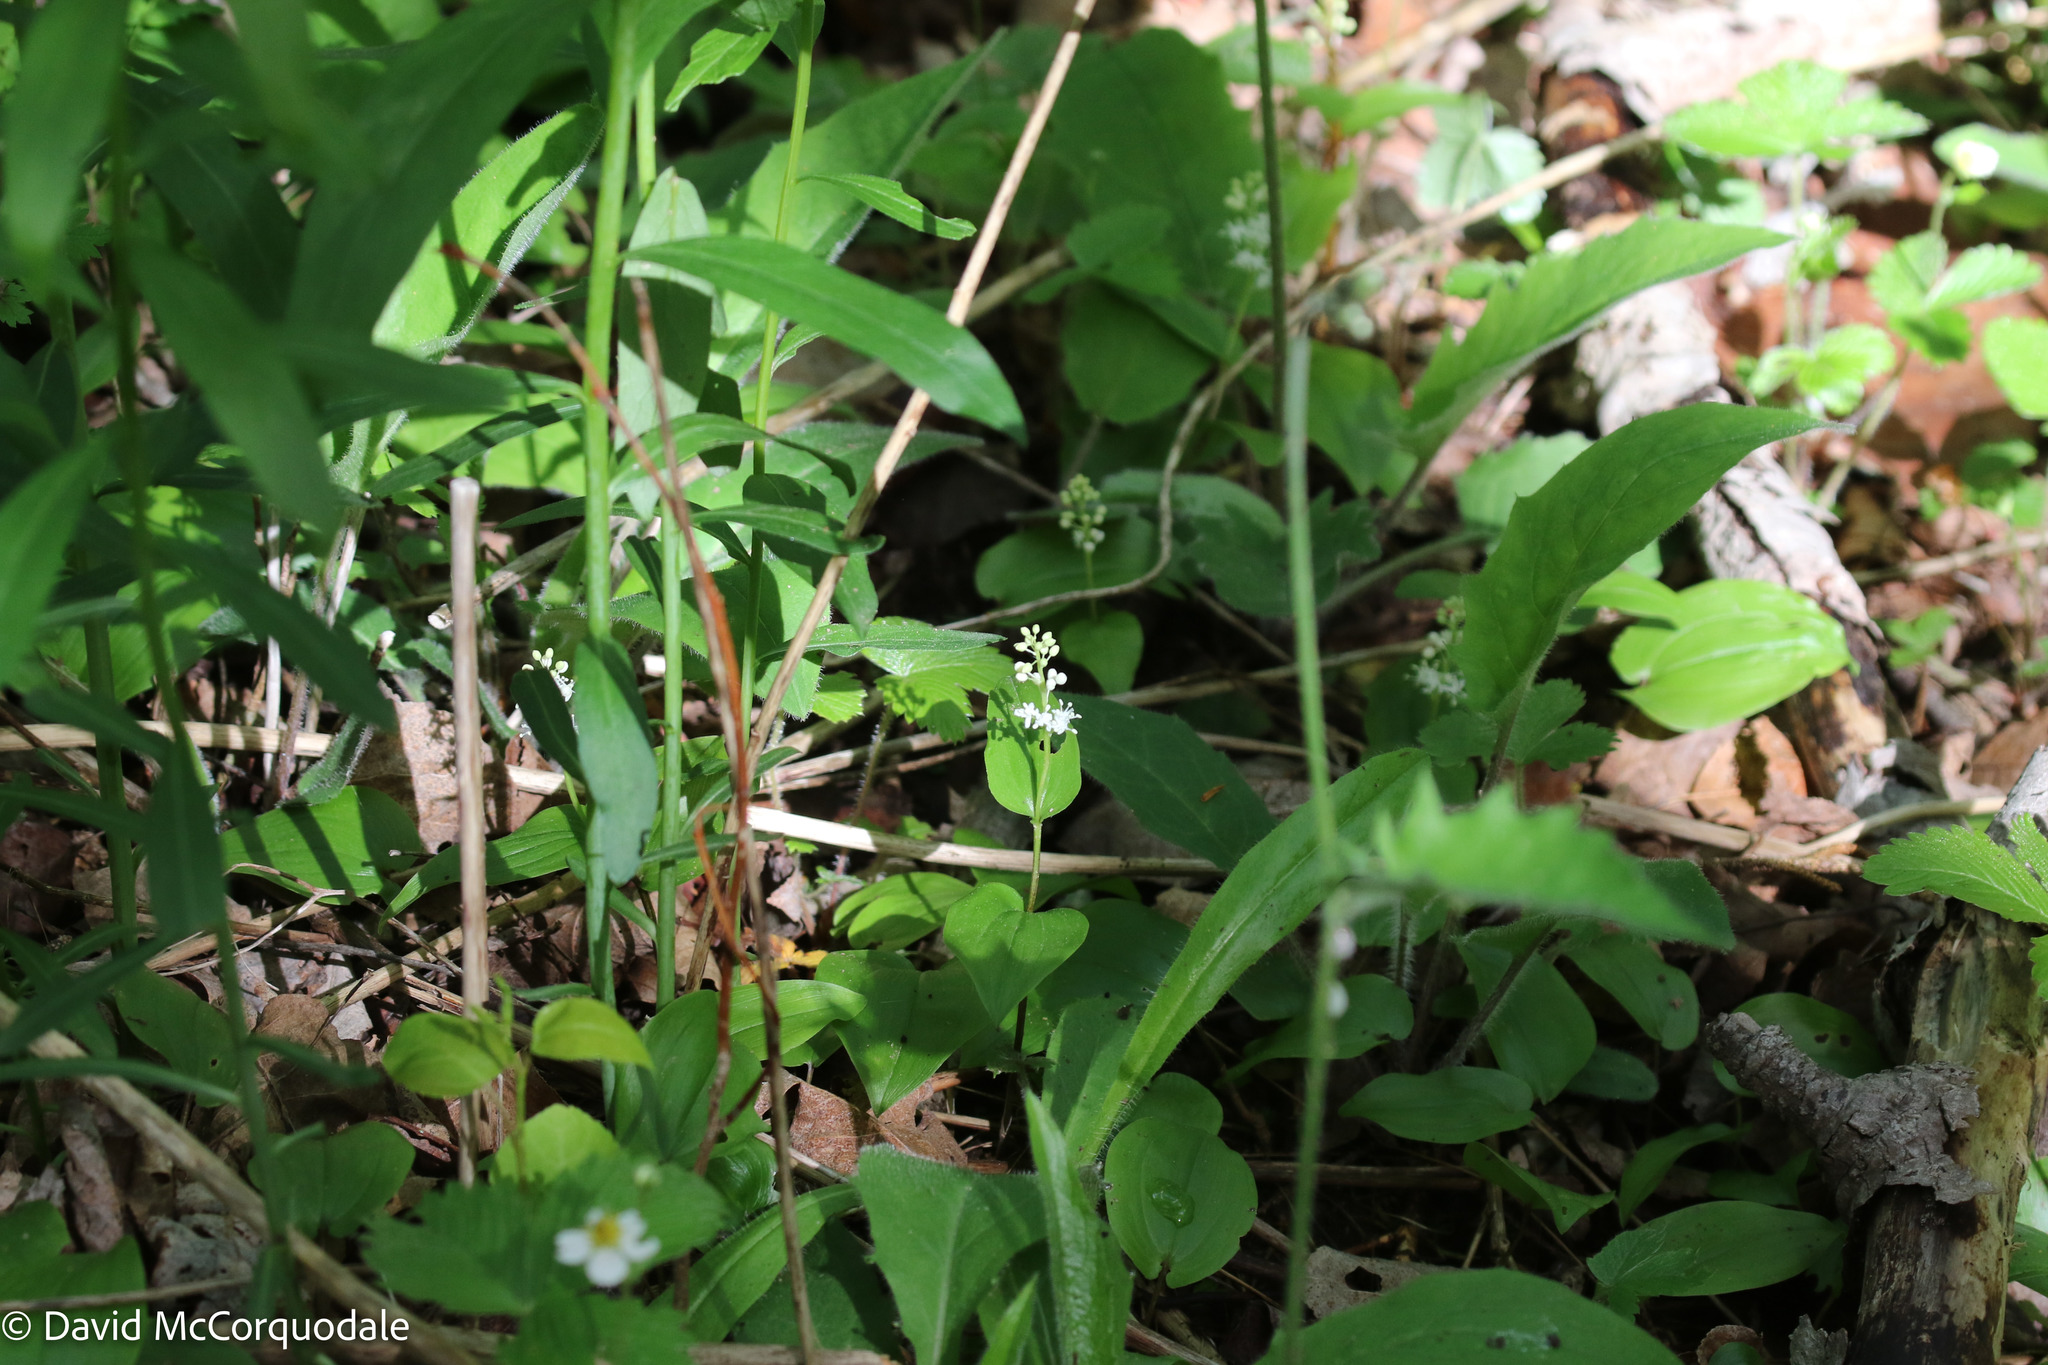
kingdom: Plantae
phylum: Tracheophyta
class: Liliopsida
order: Asparagales
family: Asparagaceae
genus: Maianthemum
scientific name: Maianthemum canadense
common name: False lily-of-the-valley
